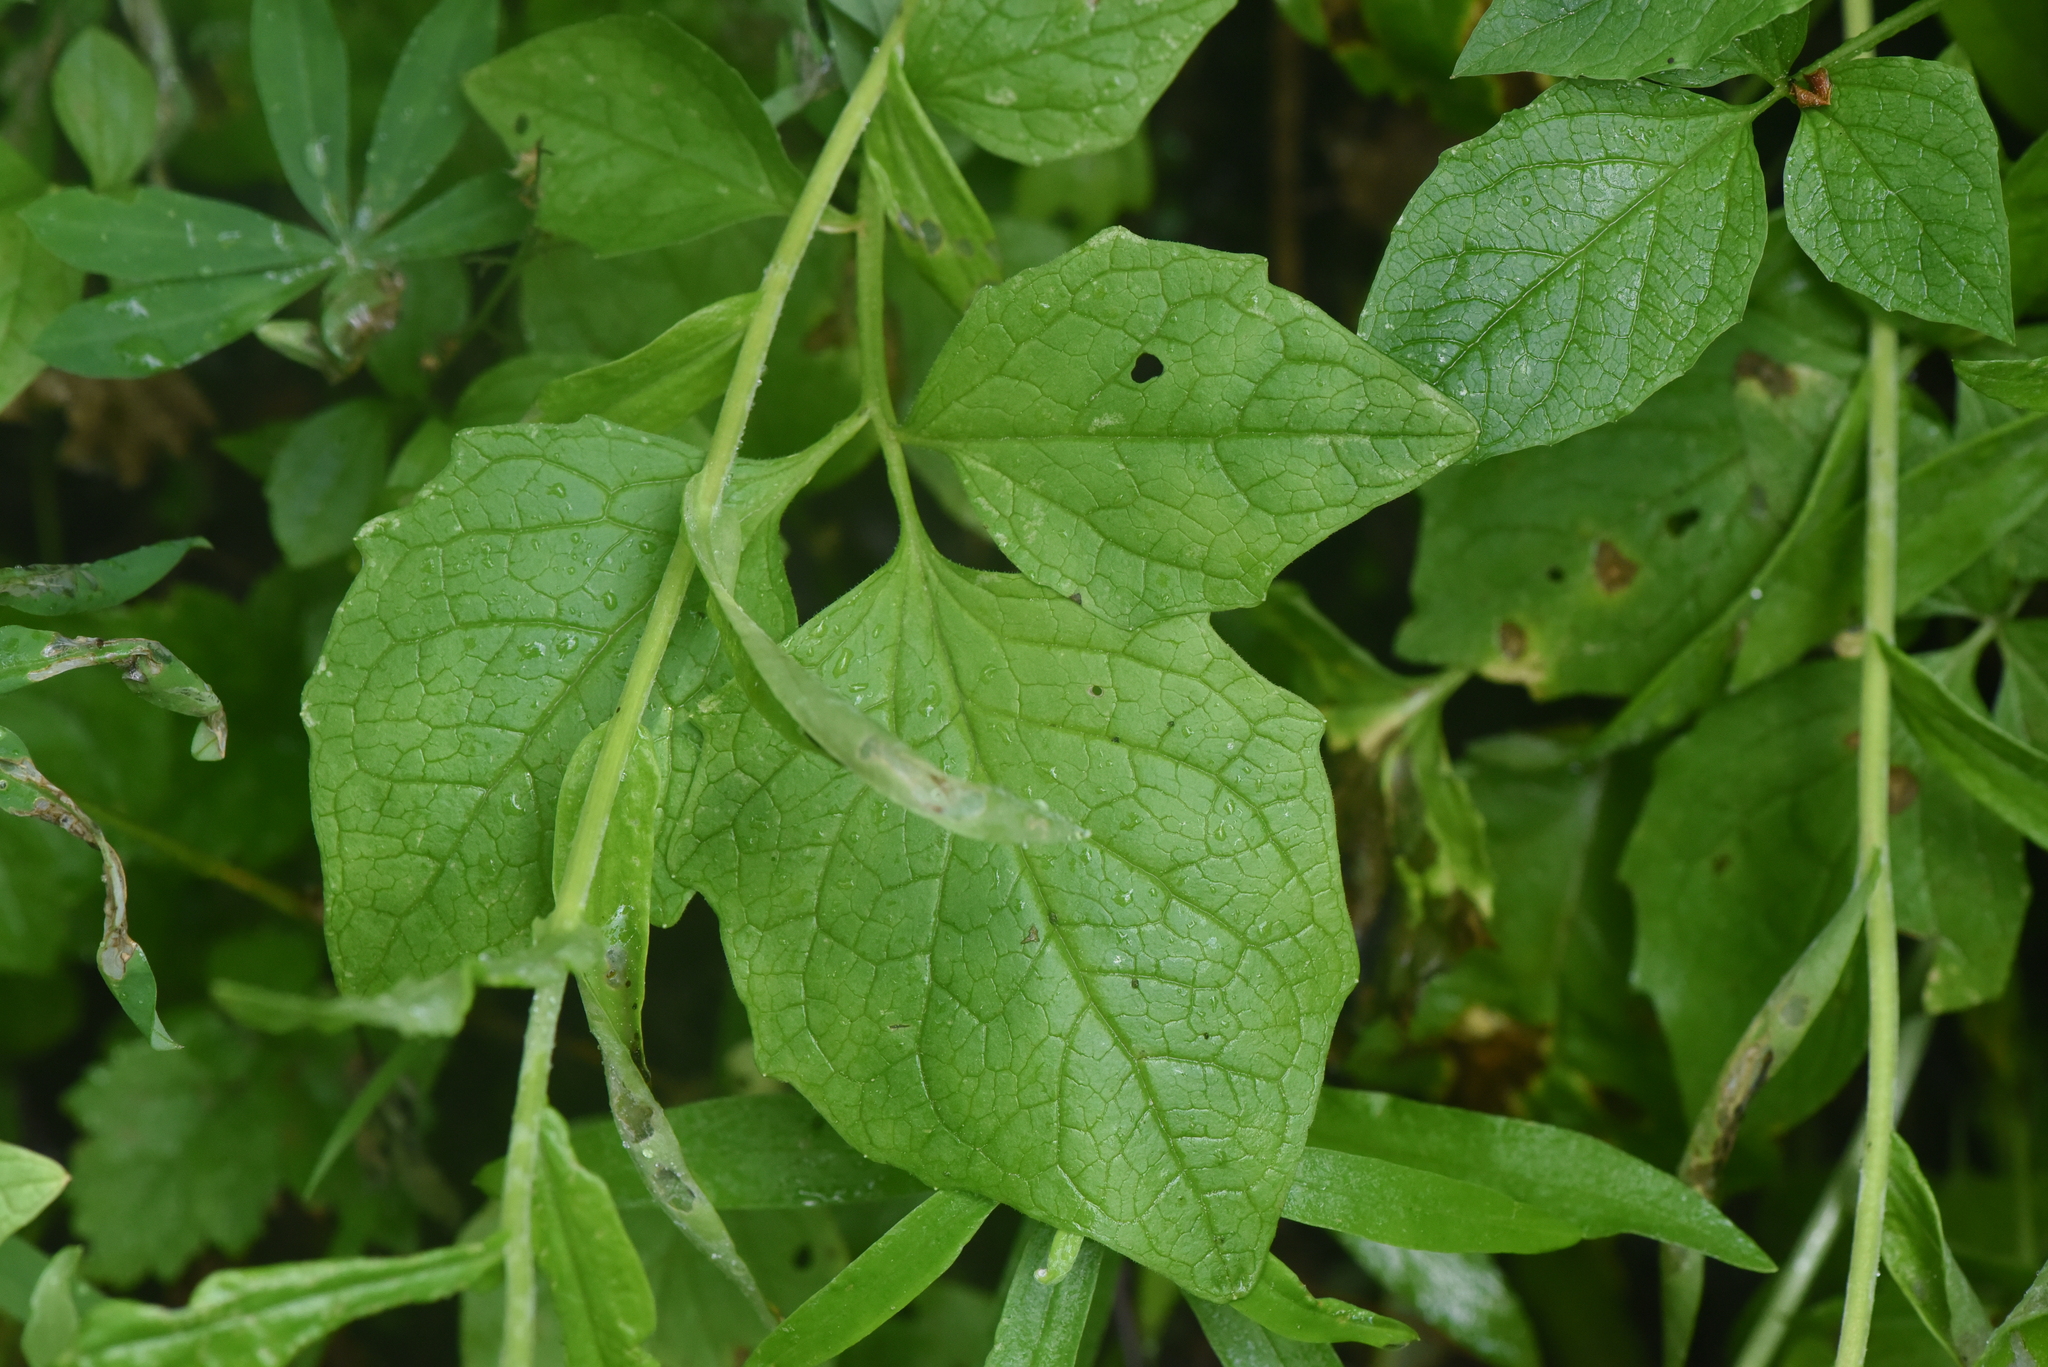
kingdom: Plantae
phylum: Tracheophyta
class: Magnoliopsida
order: Dipsacales
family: Caprifoliaceae
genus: Valeriana
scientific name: Valeriana sitchensis
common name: Pacific valerian
